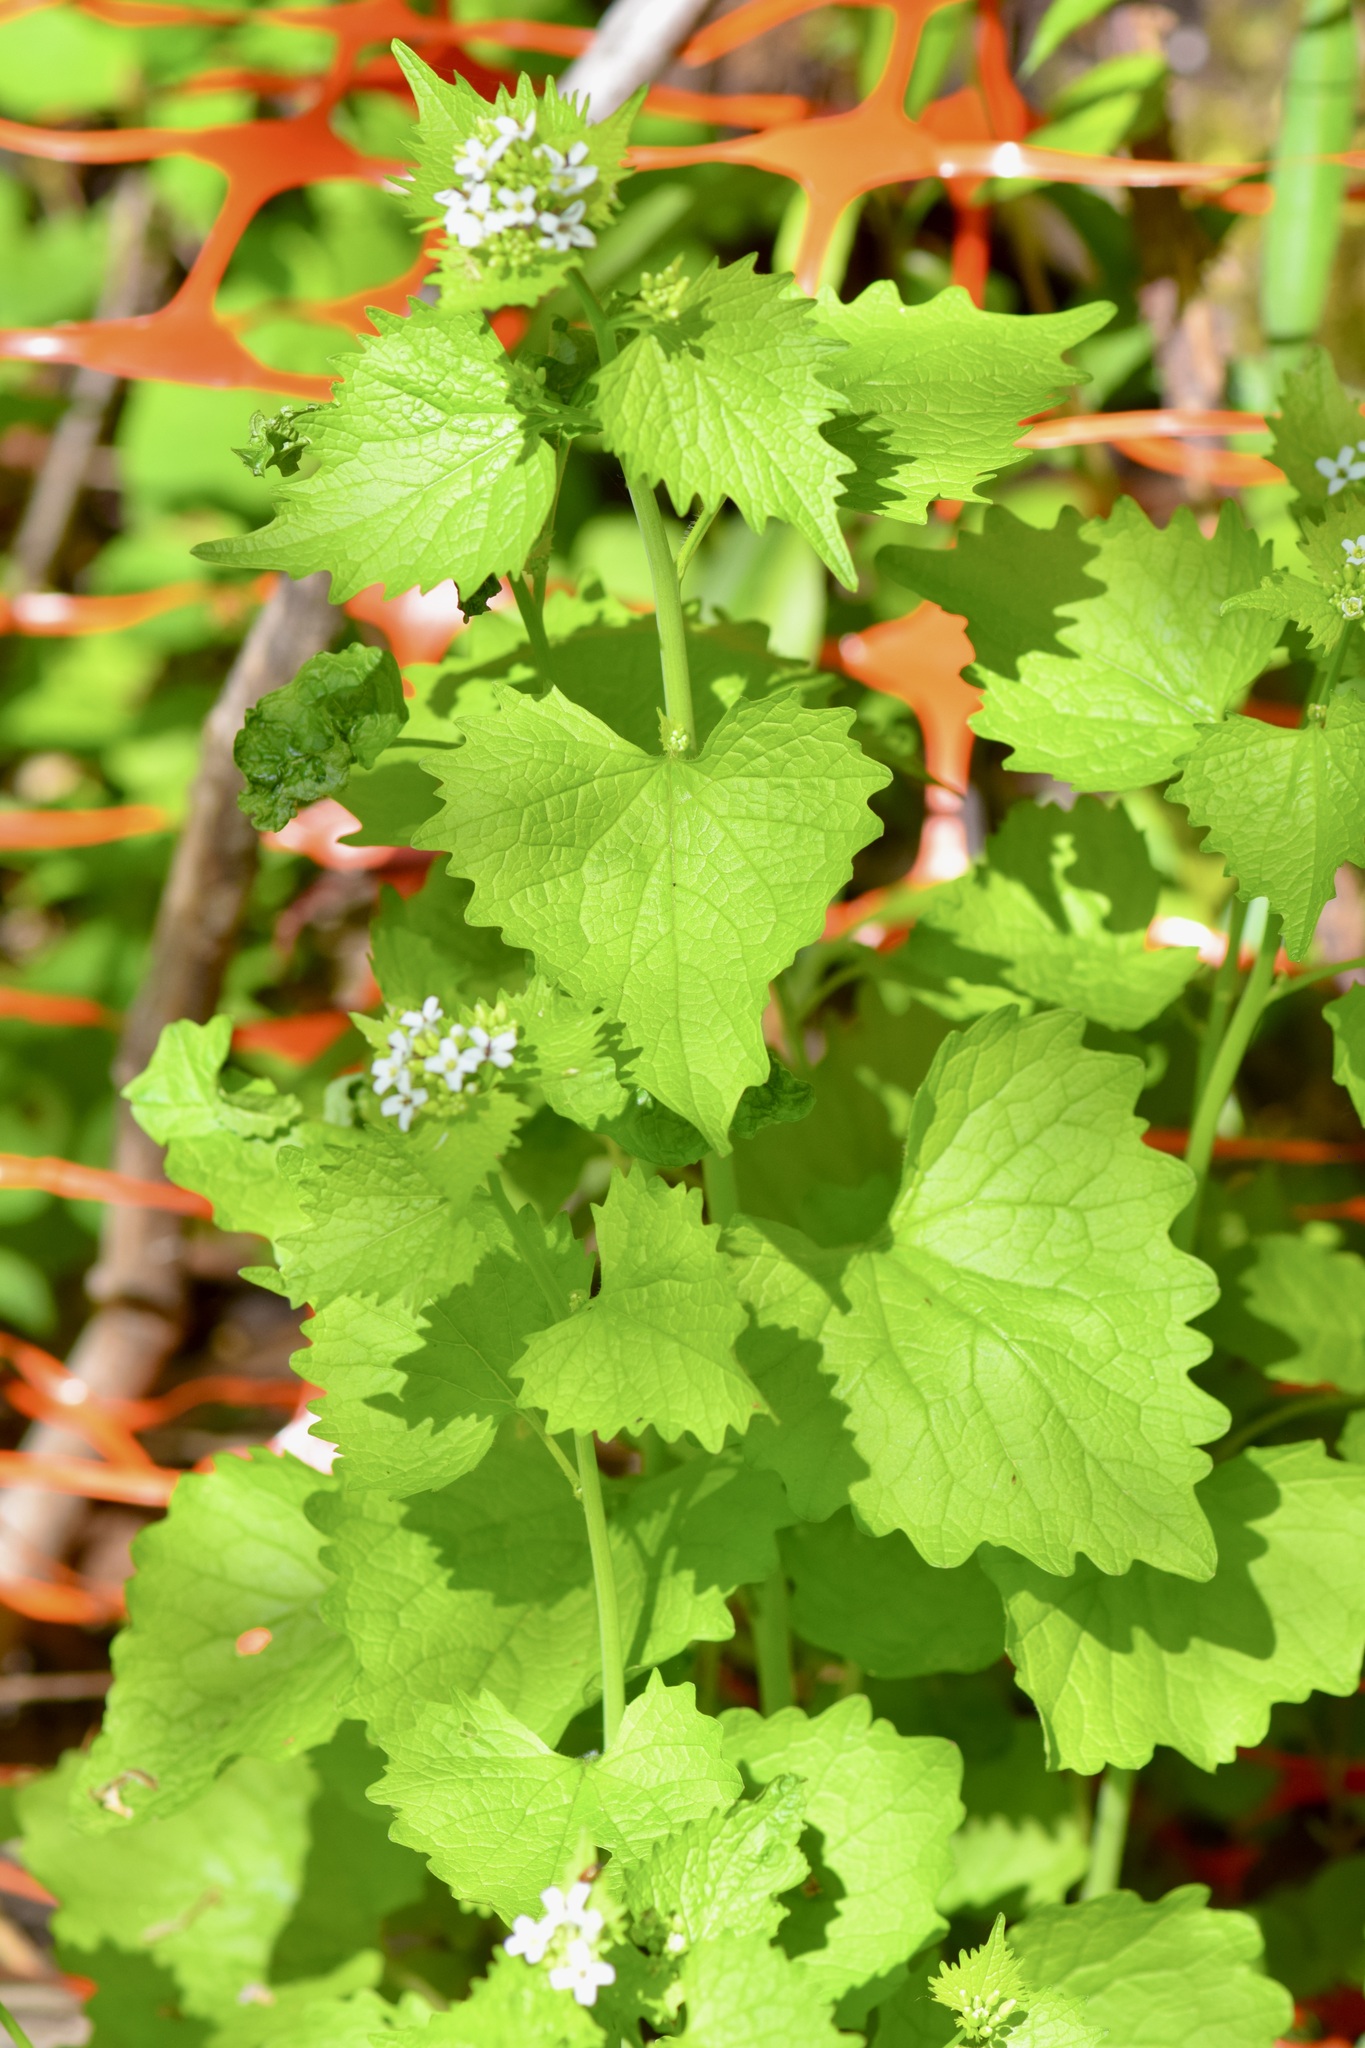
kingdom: Plantae
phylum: Tracheophyta
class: Magnoliopsida
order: Brassicales
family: Brassicaceae
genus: Alliaria
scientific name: Alliaria petiolata
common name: Garlic mustard
